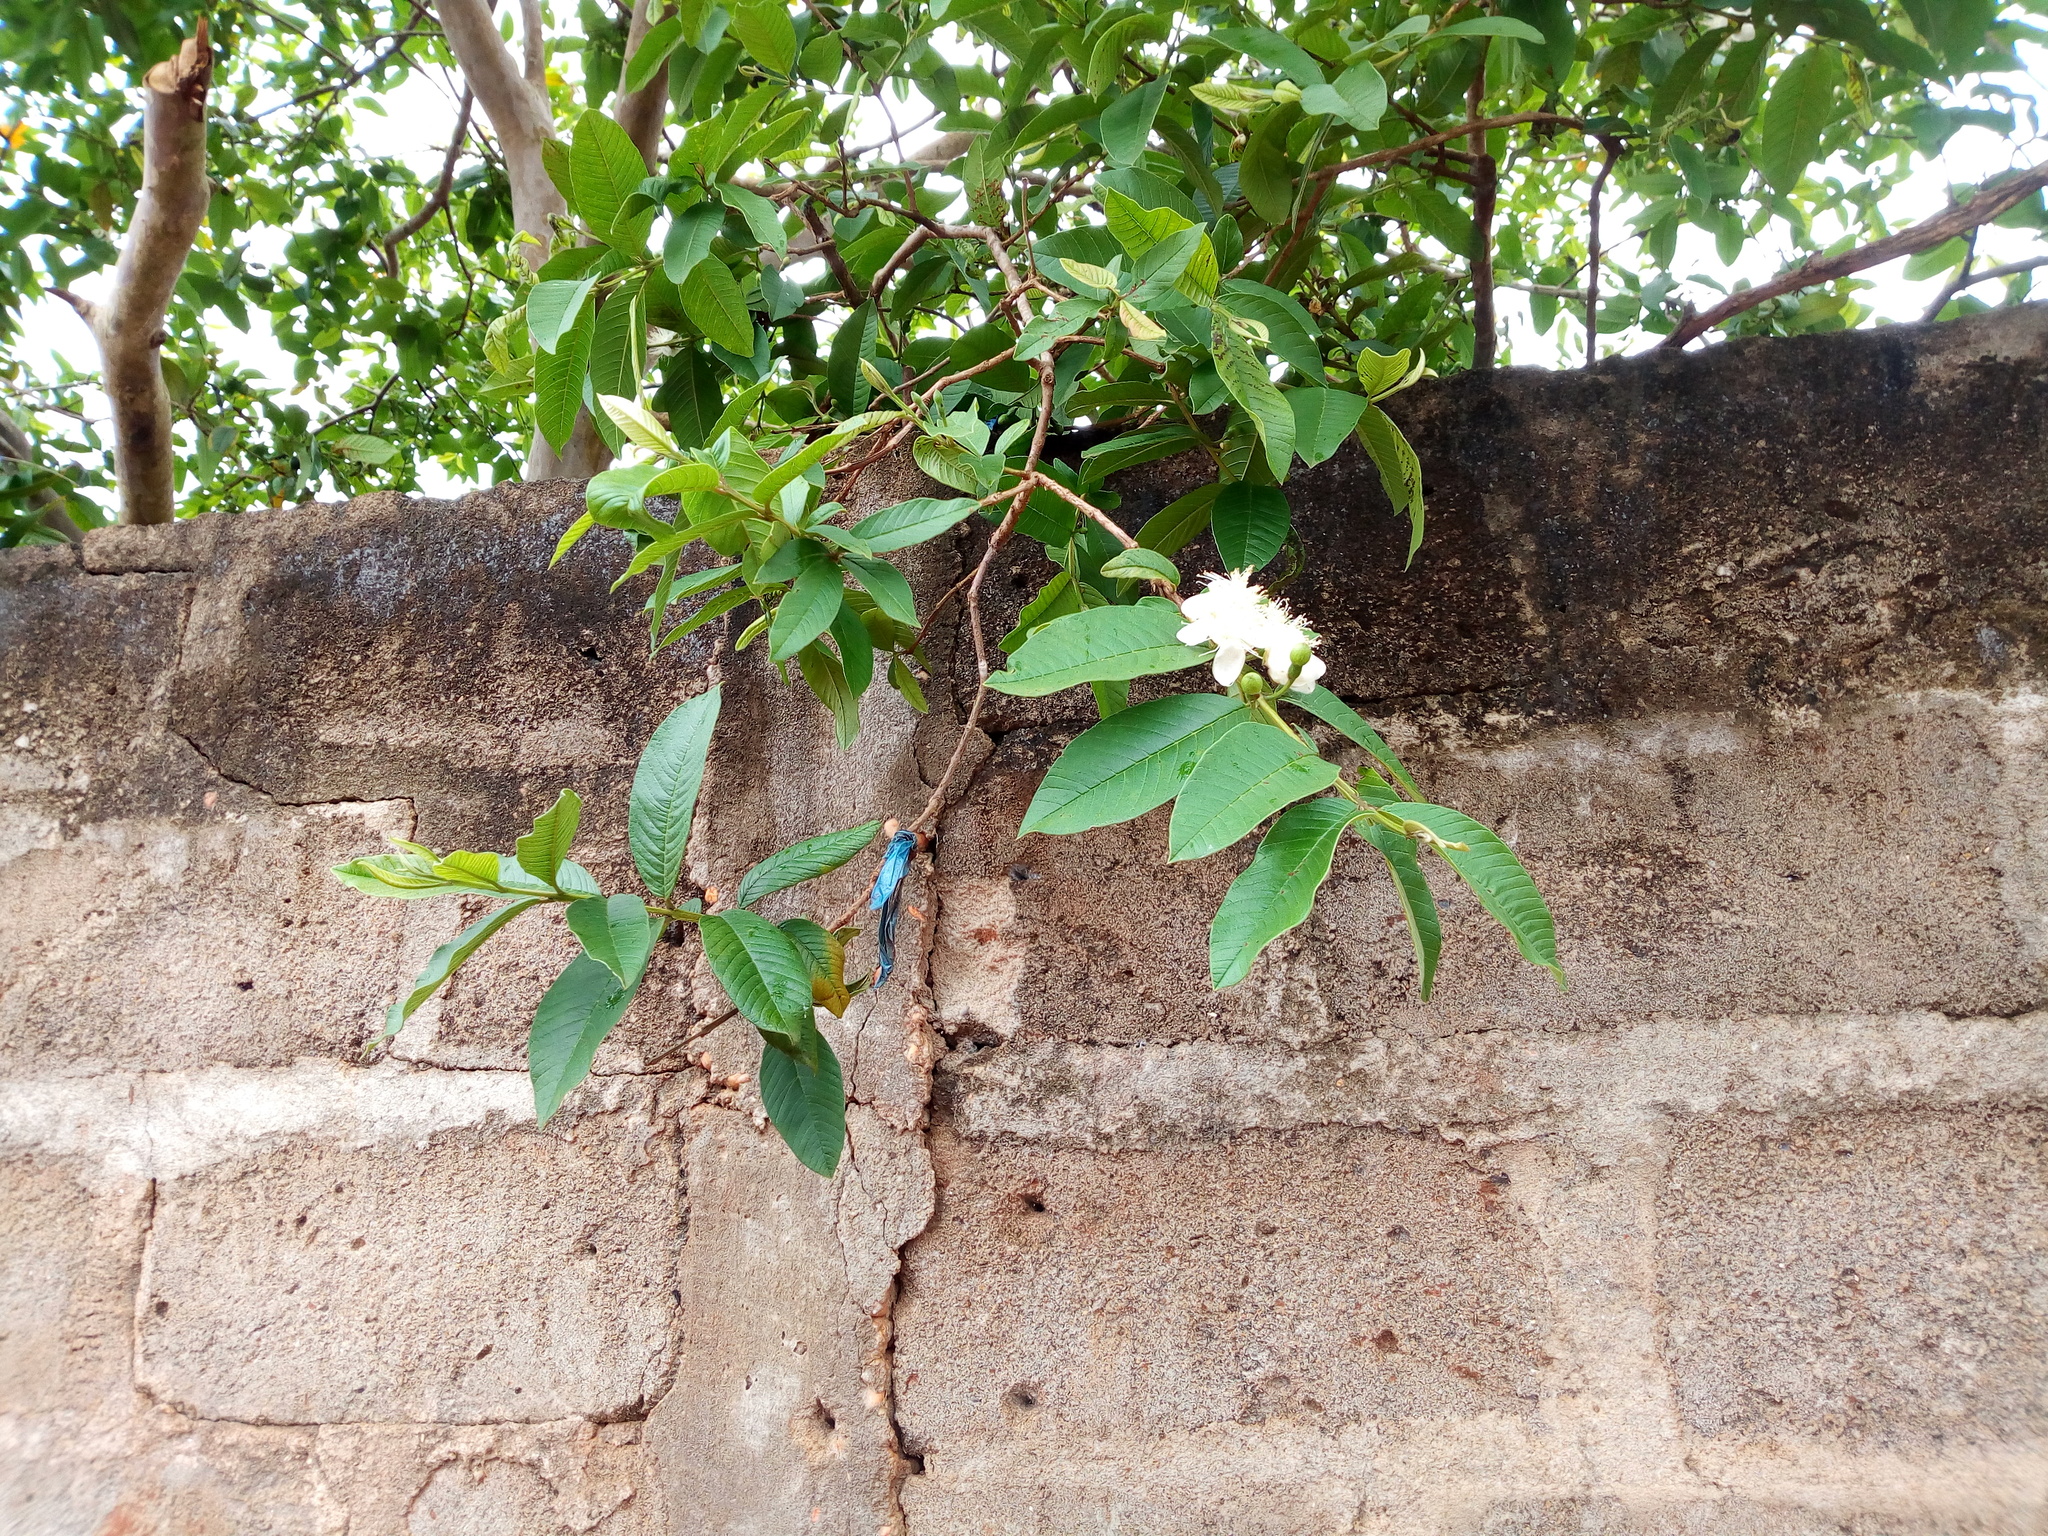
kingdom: Plantae
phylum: Tracheophyta
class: Magnoliopsida
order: Myrtales
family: Myrtaceae
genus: Psidium
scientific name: Psidium guajava
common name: Guava
